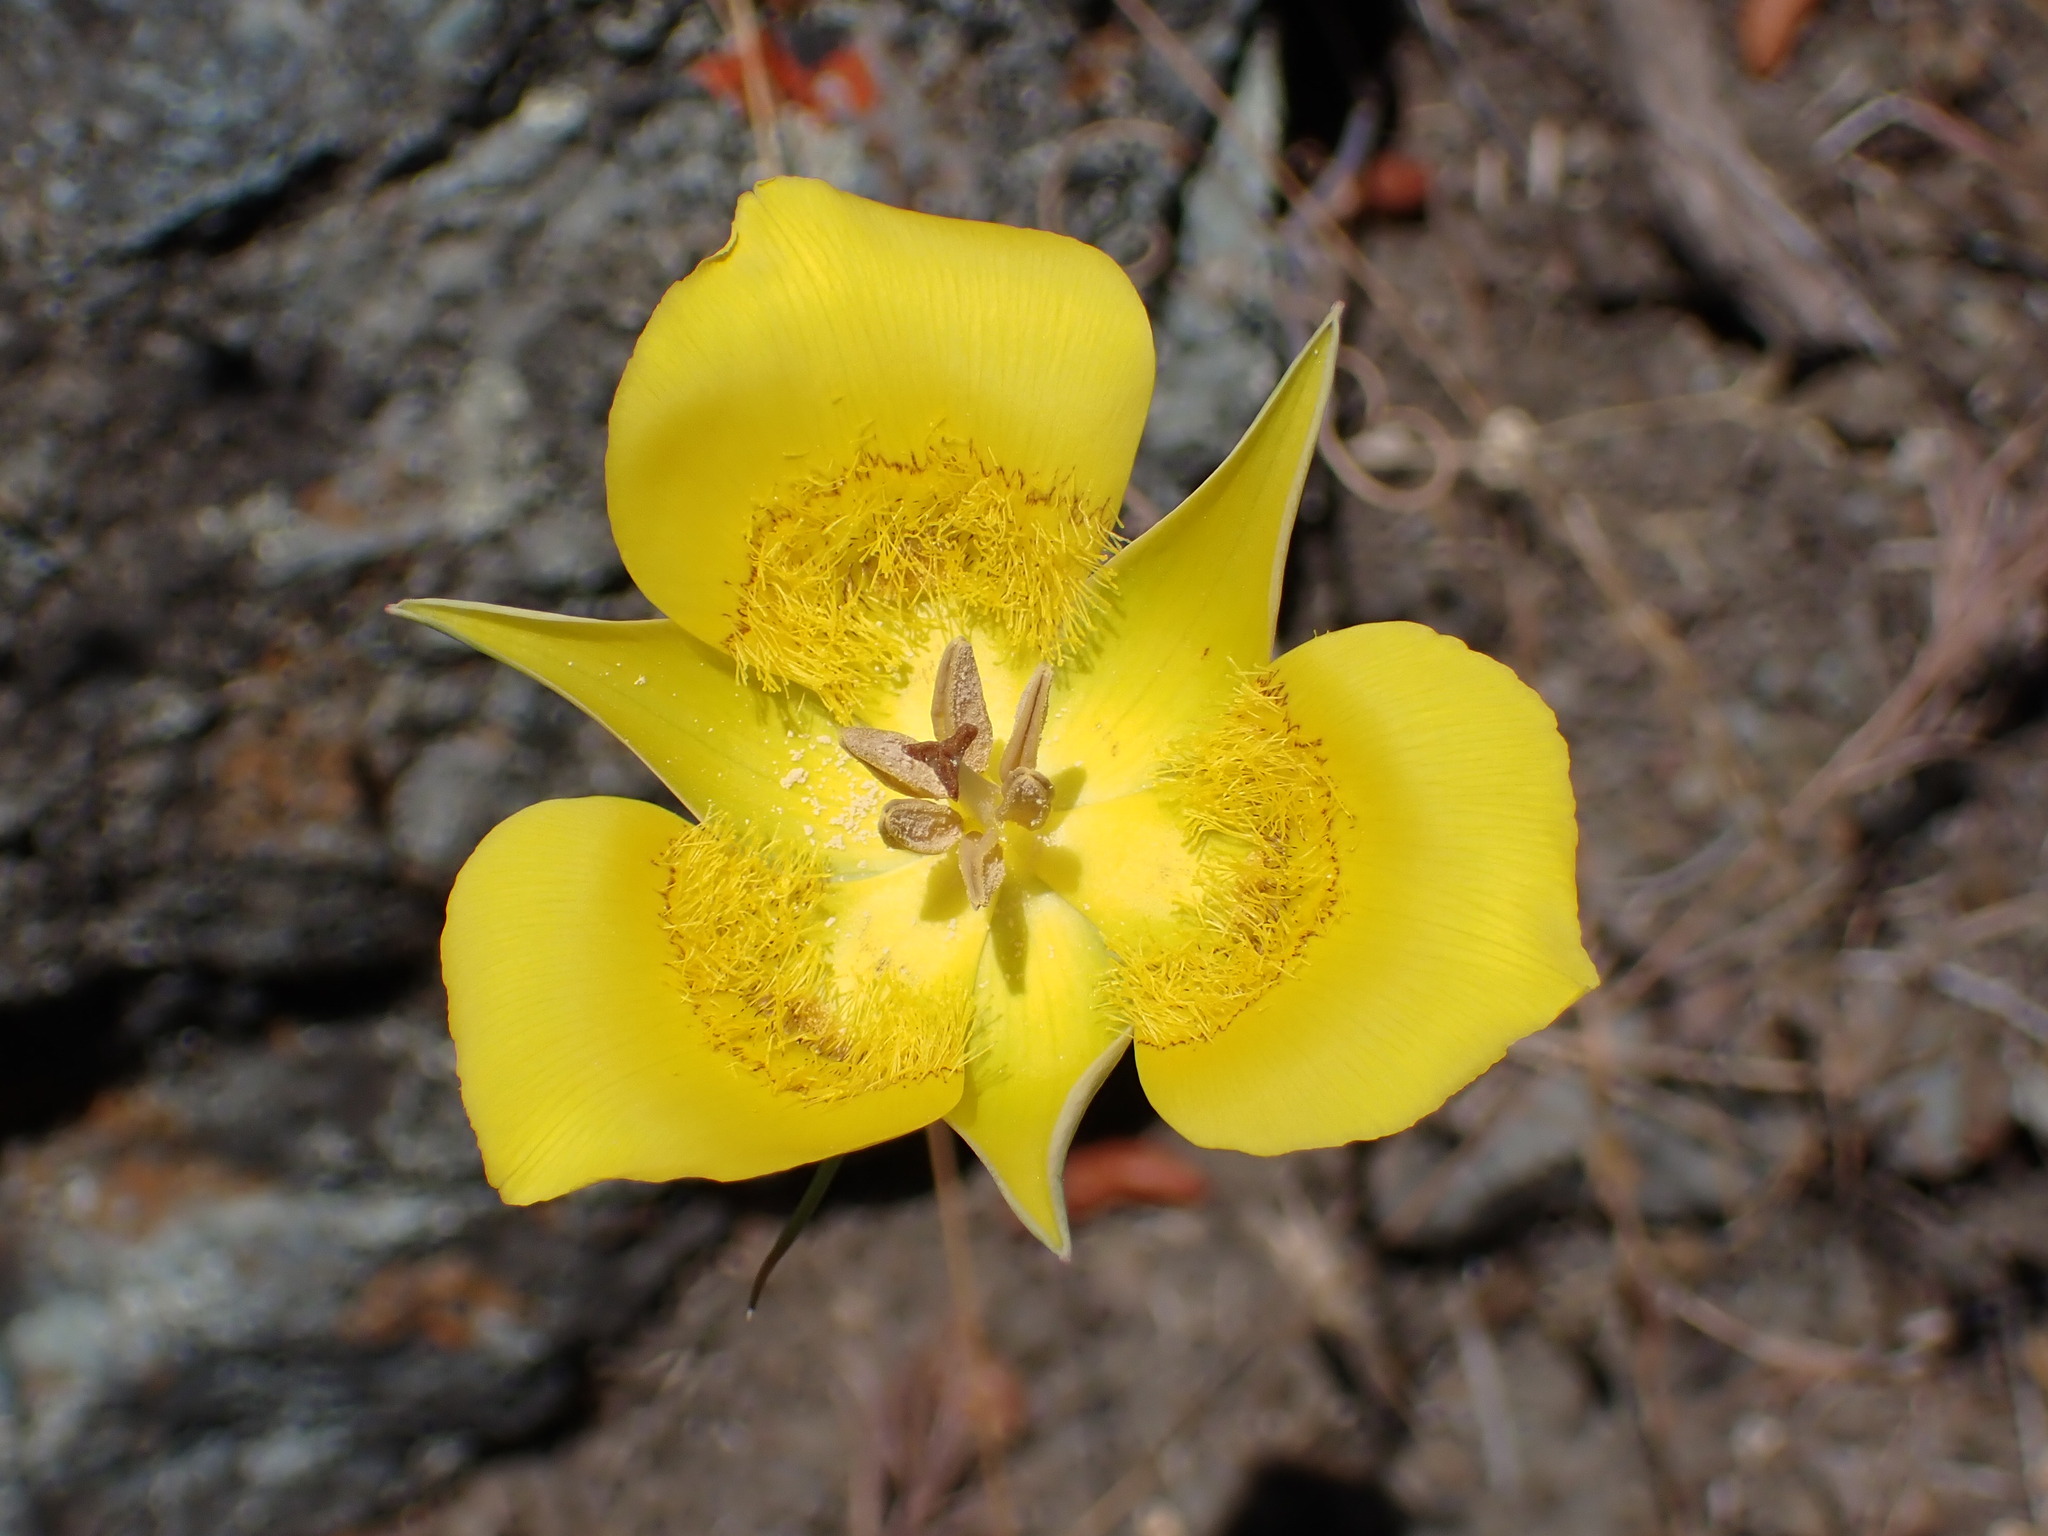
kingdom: Plantae
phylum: Tracheophyta
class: Liliopsida
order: Liliales
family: Liliaceae
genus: Calochortus
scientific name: Calochortus clavatus
